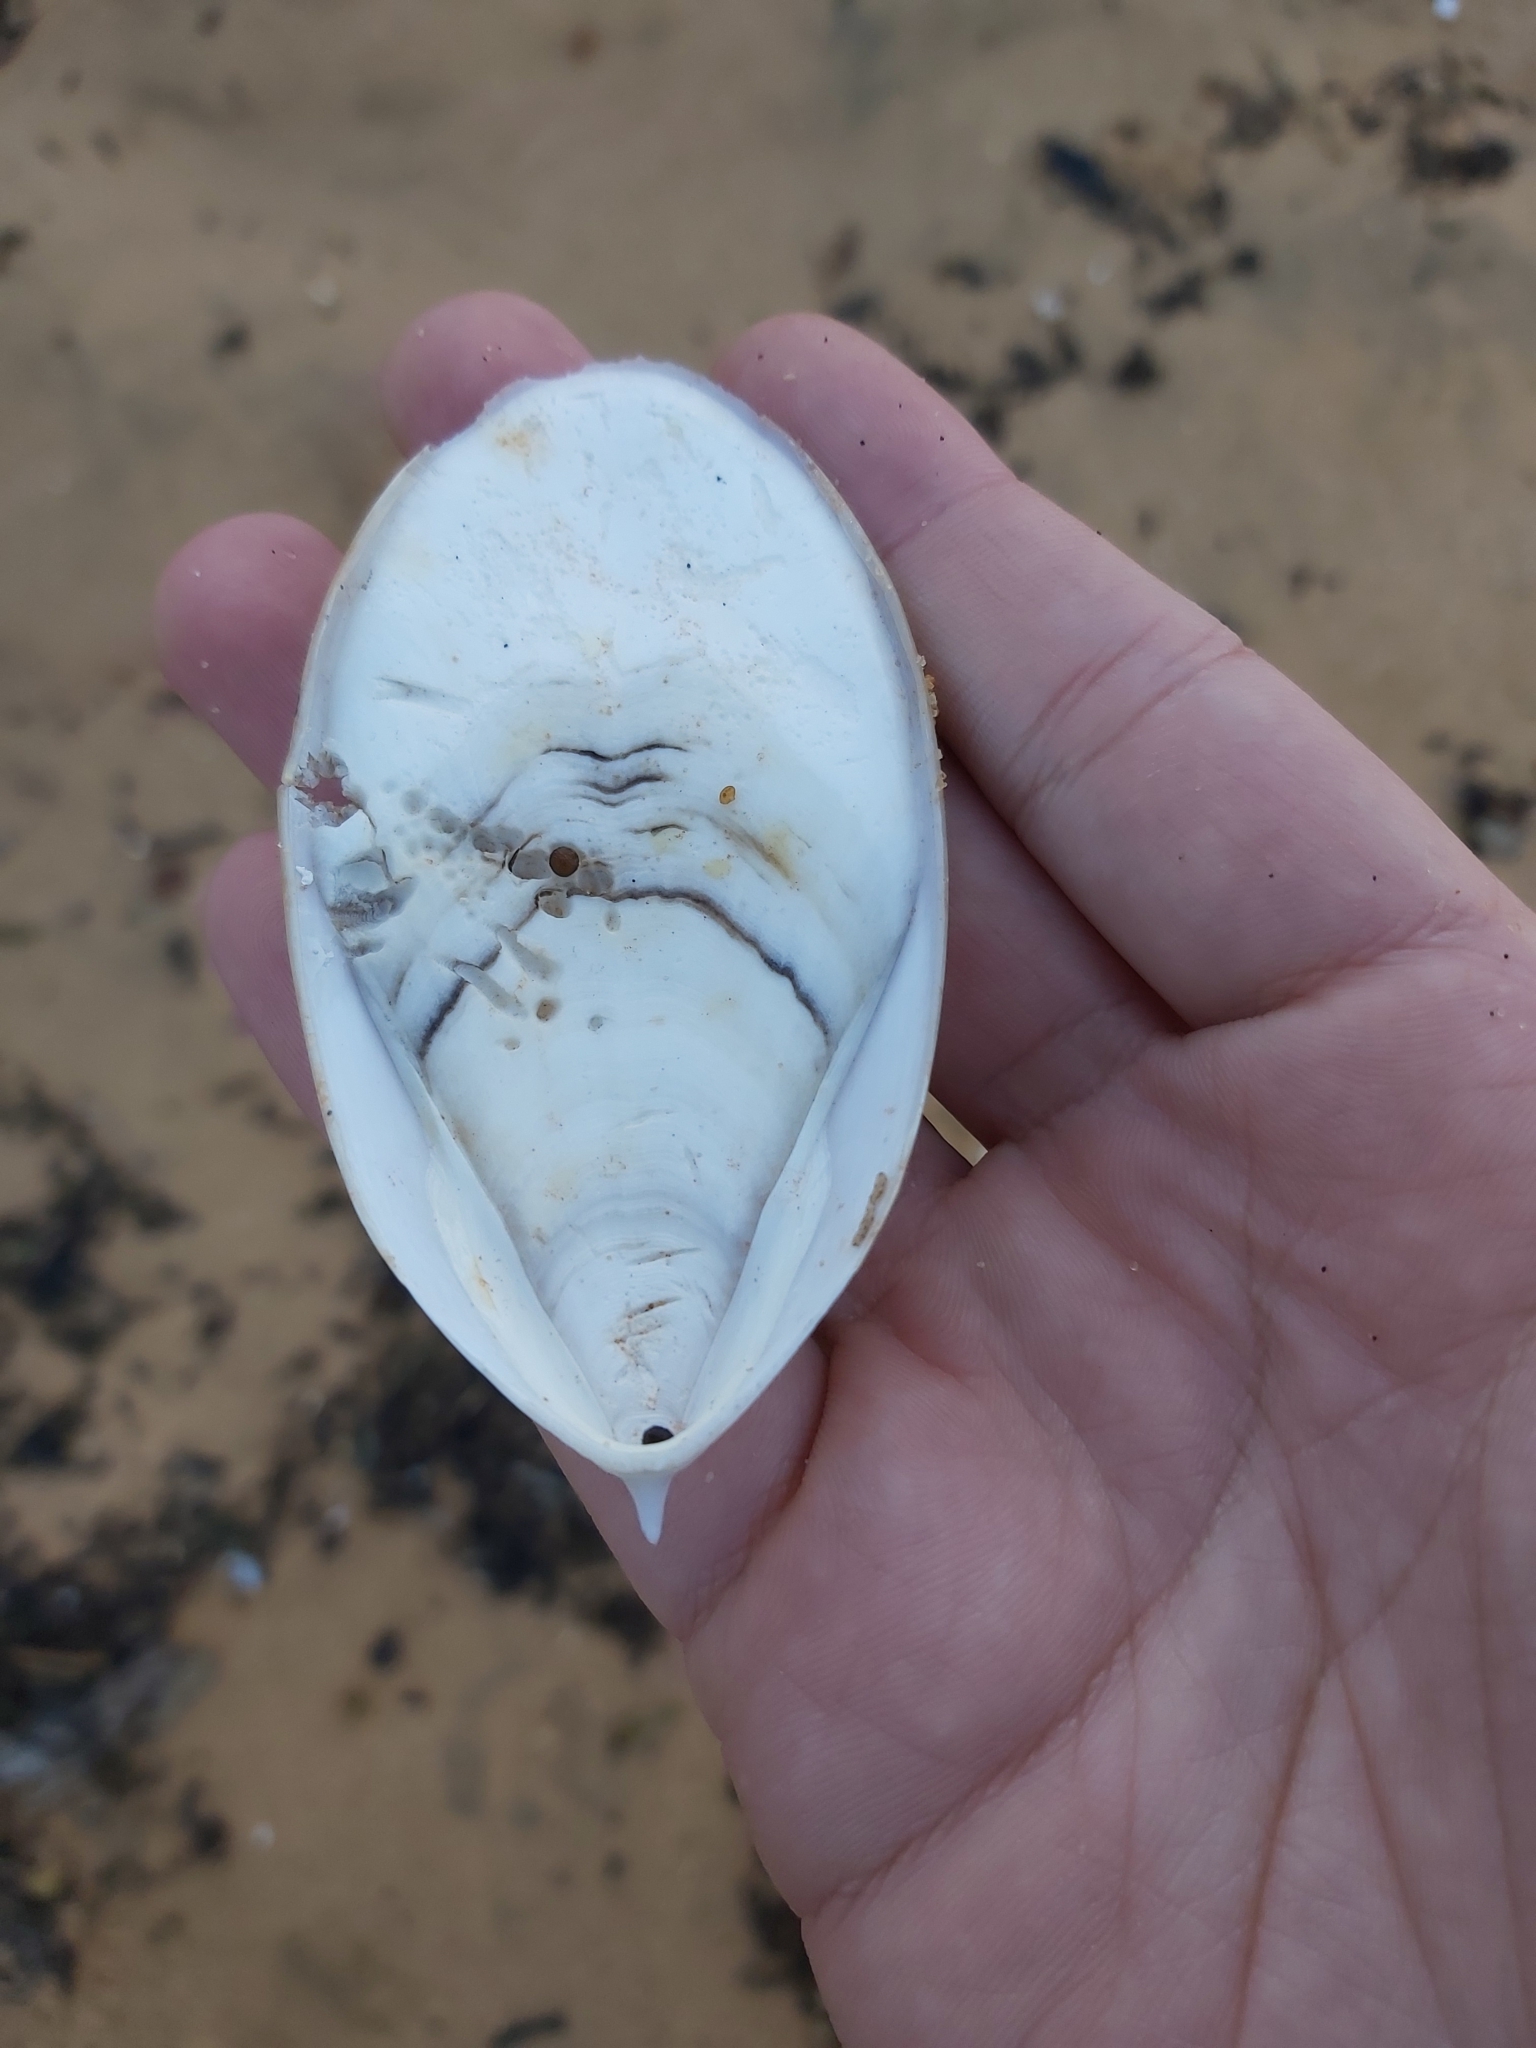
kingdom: Animalia
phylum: Mollusca
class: Cephalopoda
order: Sepiida
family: Sepiidae
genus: Ascarosepion
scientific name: Ascarosepion mestus
